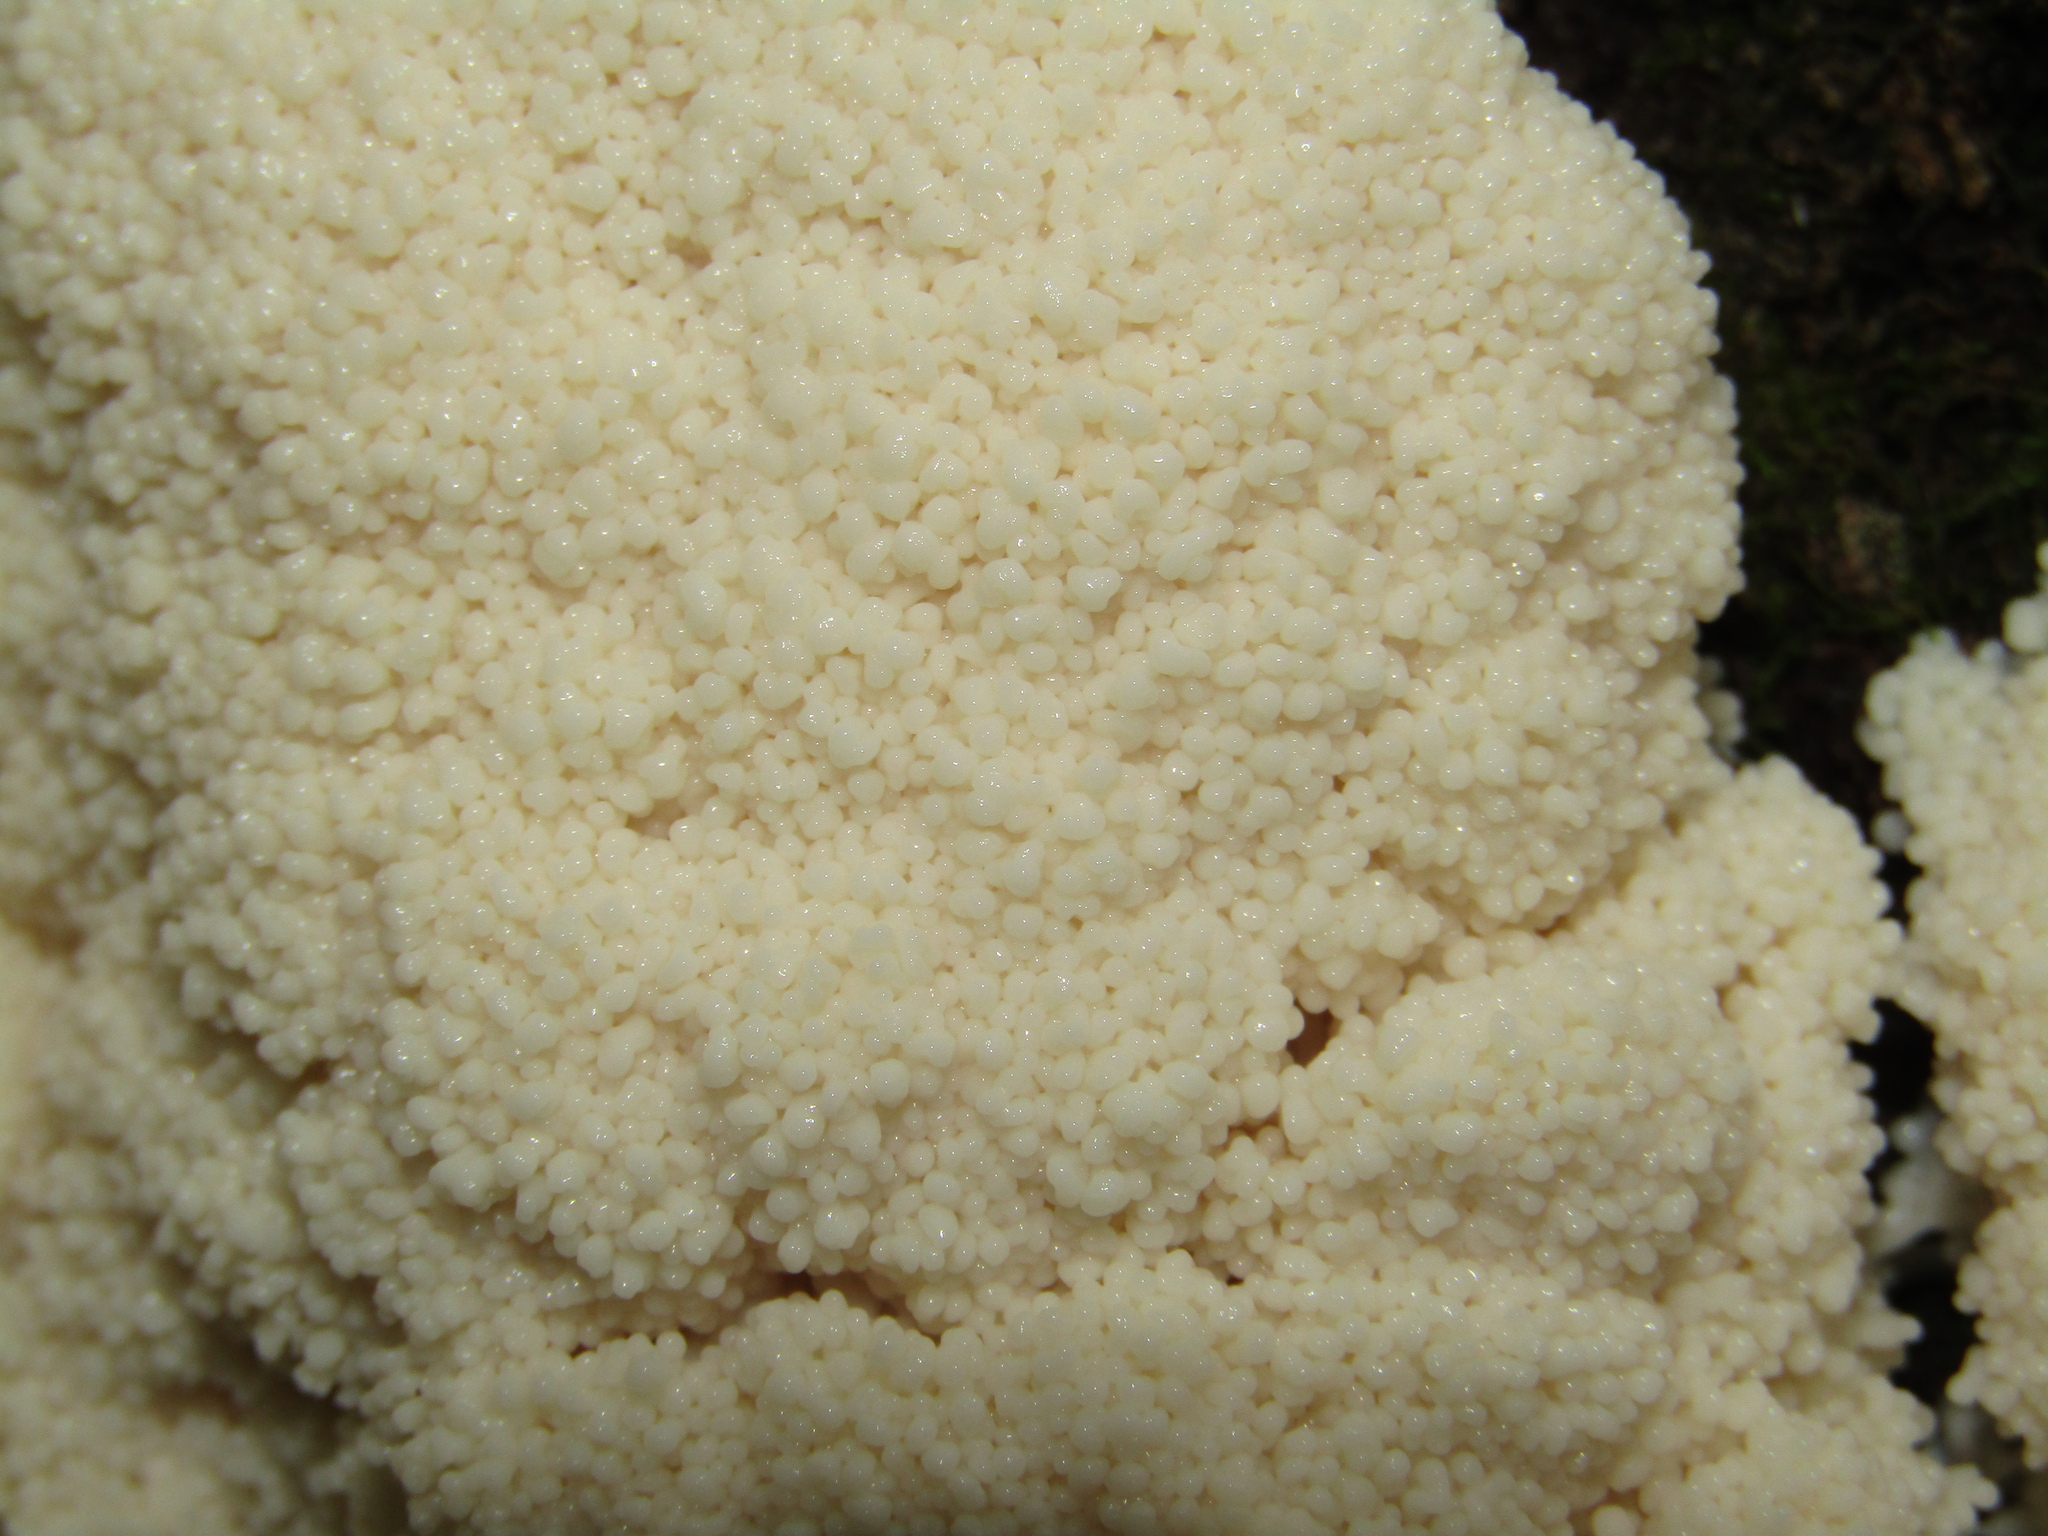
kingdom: Protozoa
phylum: Mycetozoa
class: Myxomycetes
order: Stemonitidales
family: Stemonitidaceae
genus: Brefeldia
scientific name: Brefeldia maxima
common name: Tapioca slime mold
